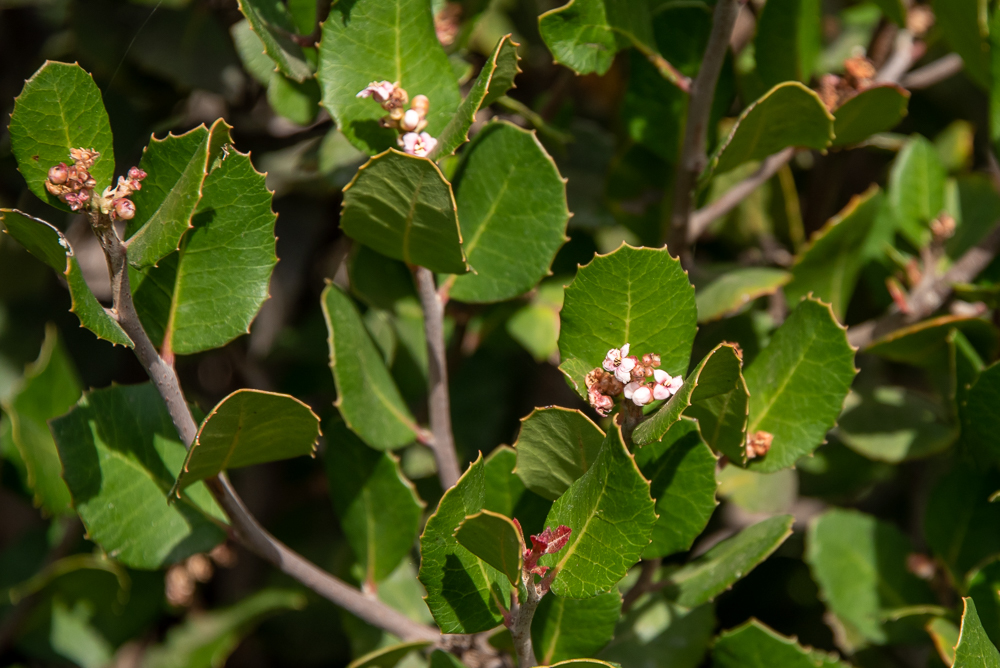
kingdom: Plantae
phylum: Tracheophyta
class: Magnoliopsida
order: Sapindales
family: Anacardiaceae
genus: Rhus
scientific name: Rhus integrifolia
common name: Lemonade sumac
